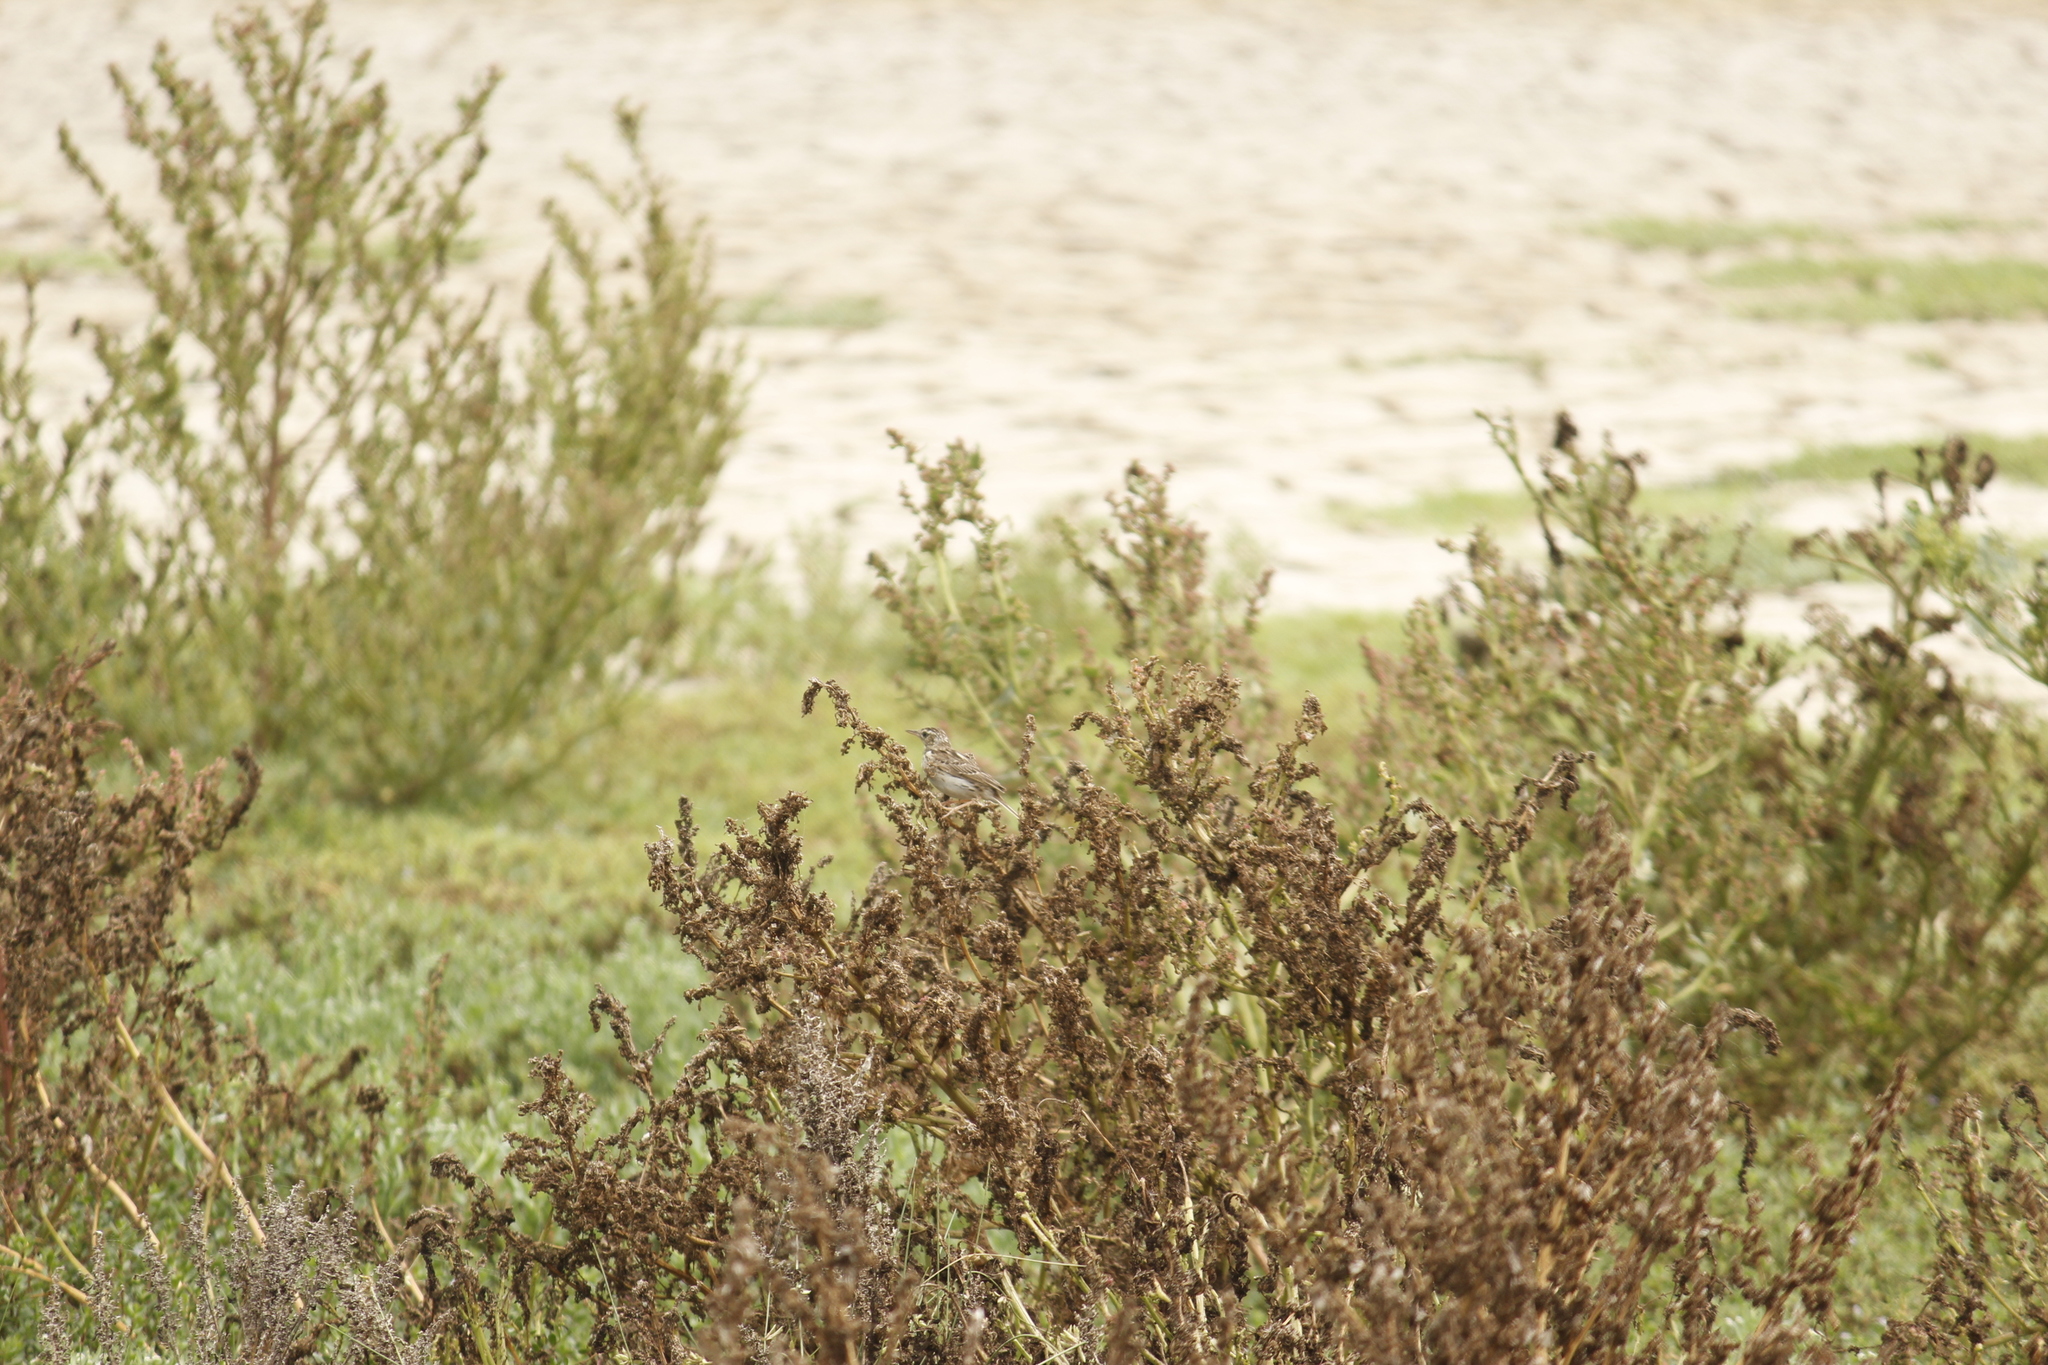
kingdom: Animalia
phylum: Chordata
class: Aves
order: Passeriformes
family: Motacillidae
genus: Anthus
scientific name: Anthus peruvianus
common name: Peruvian pipit
